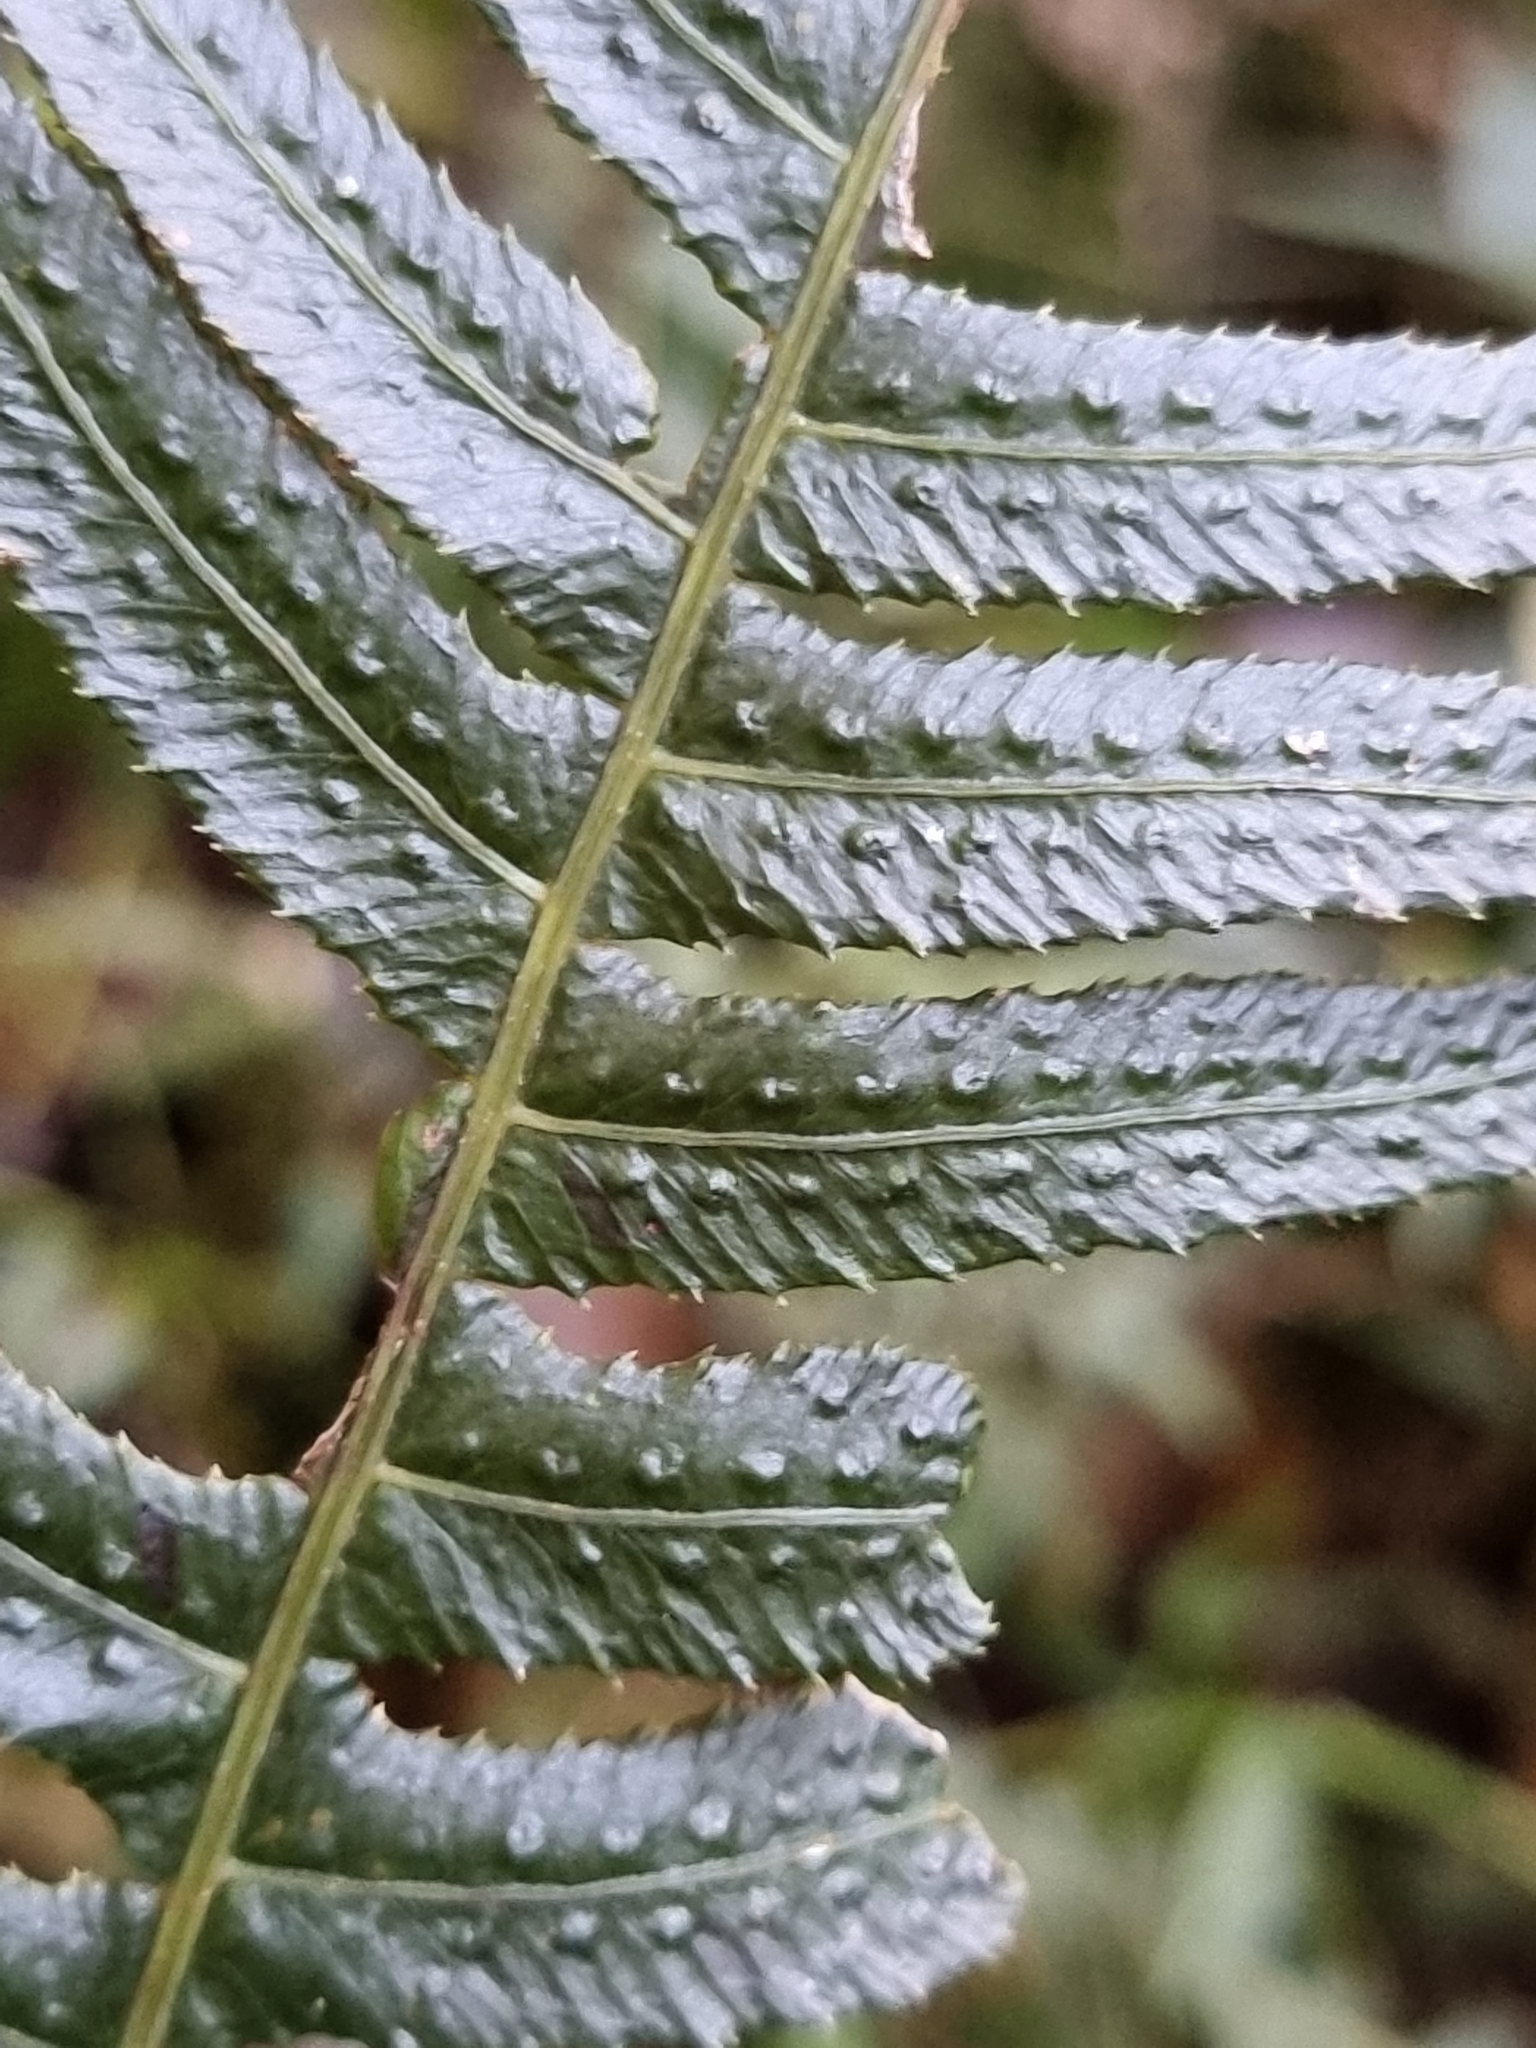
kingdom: Plantae
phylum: Tracheophyta
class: Polypodiopsida
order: Polypodiales
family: Blechnaceae
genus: Doodia
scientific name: Doodia aspera
